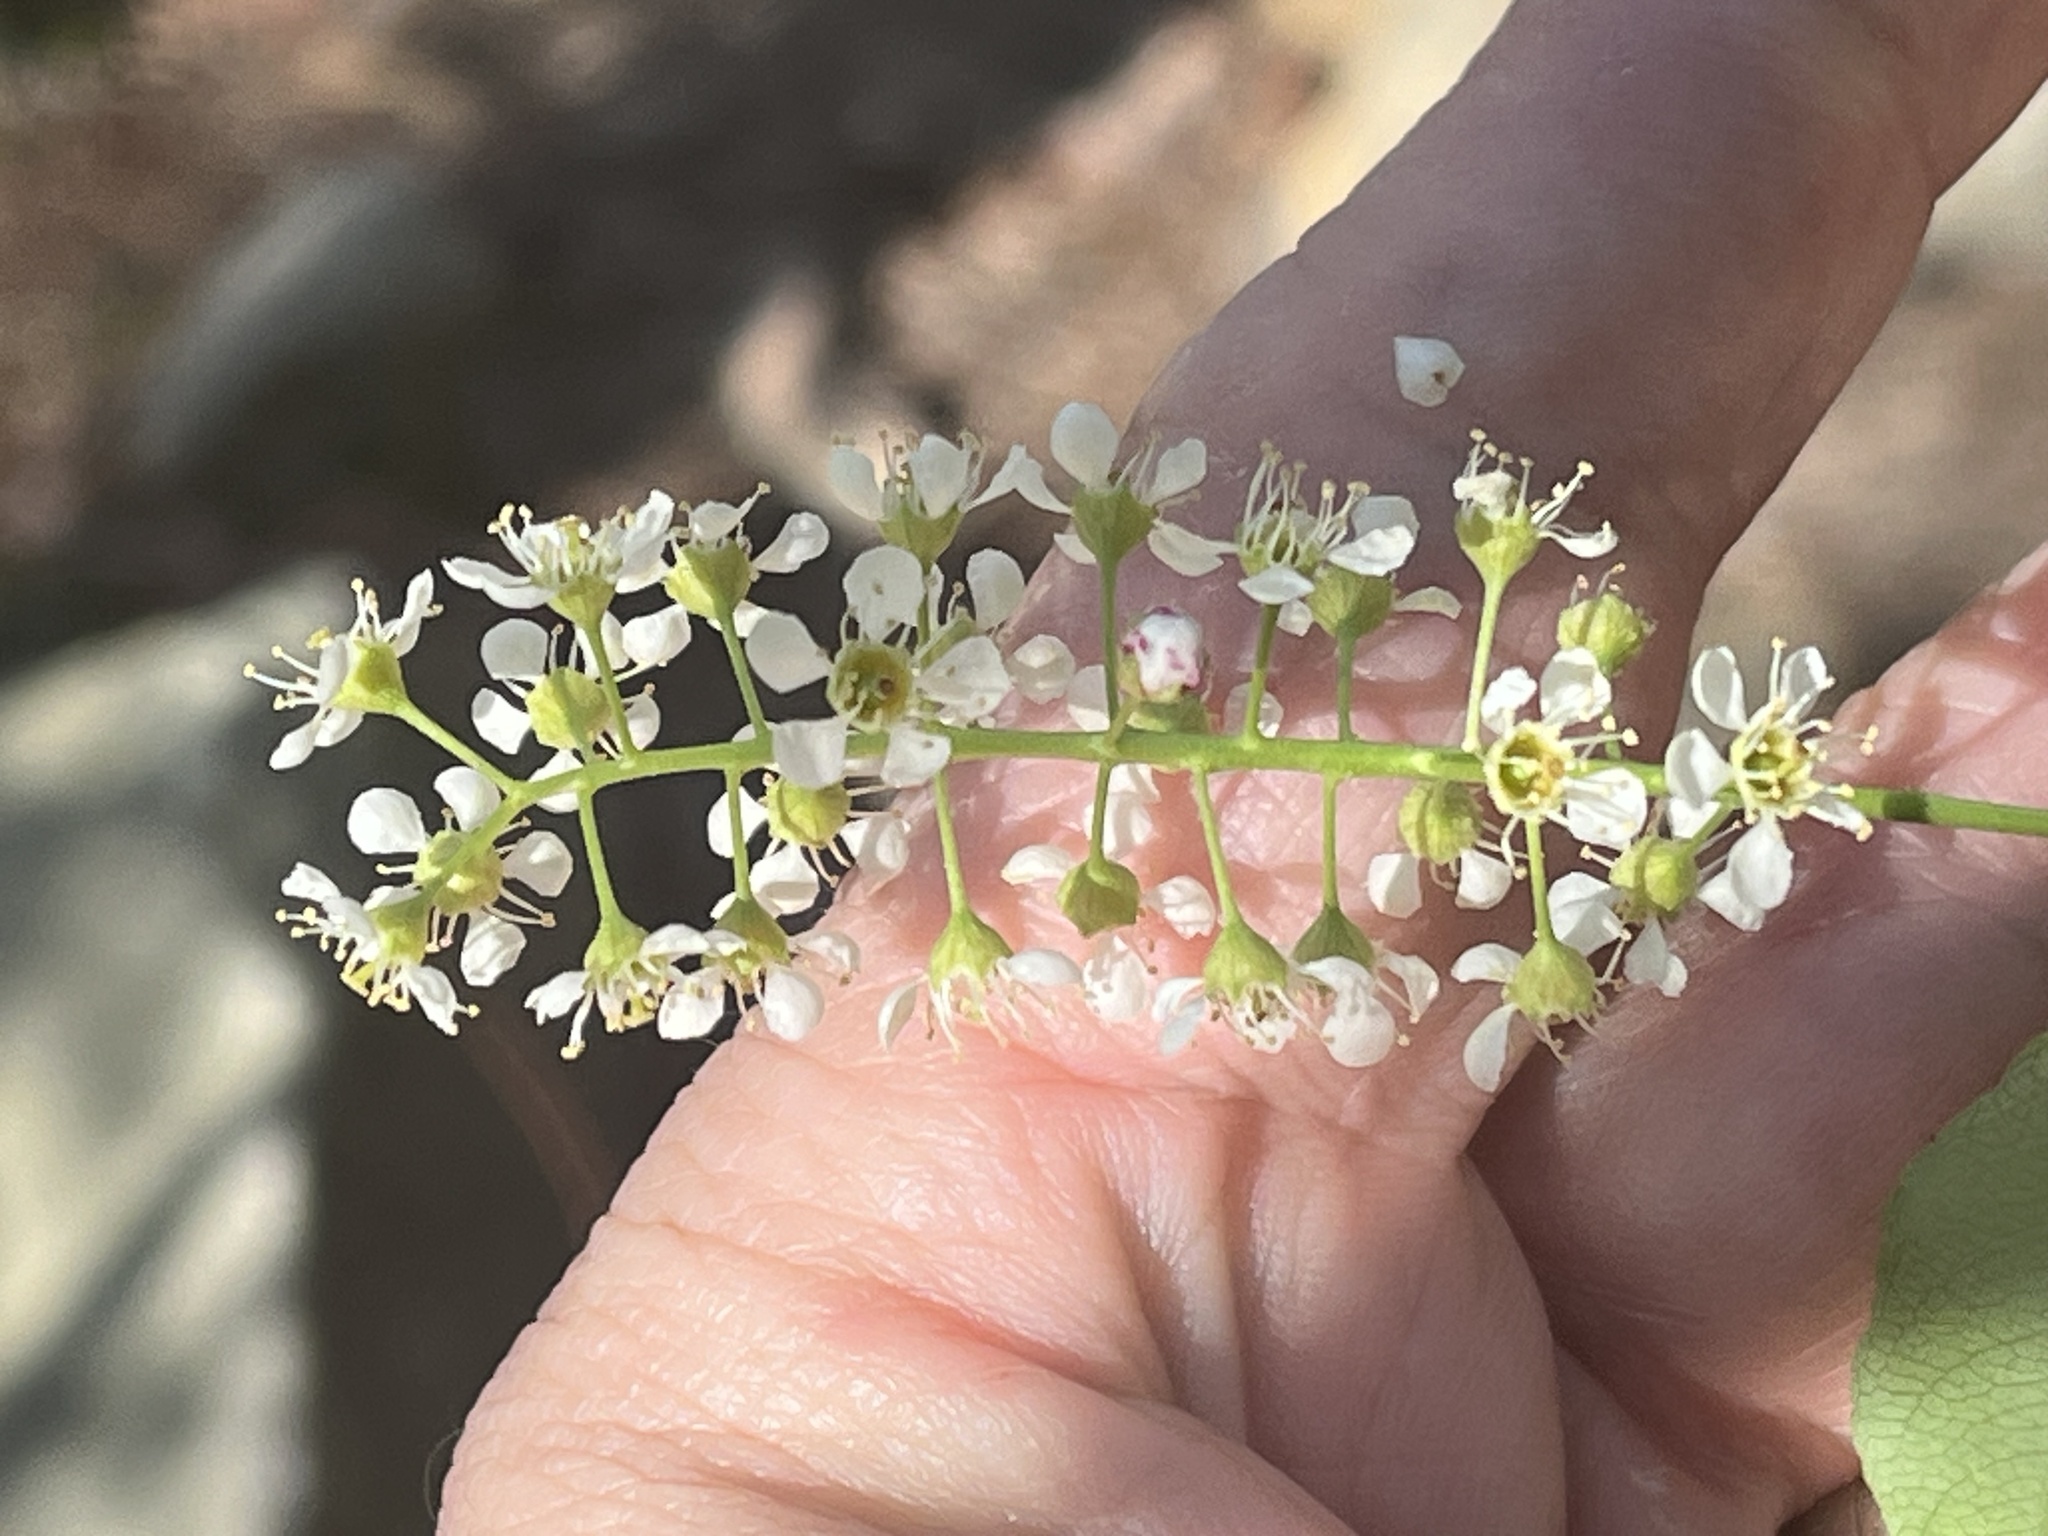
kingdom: Plantae
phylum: Tracheophyta
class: Magnoliopsida
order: Rosales
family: Rosaceae
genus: Prunus
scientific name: Prunus serotina
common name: Black cherry
